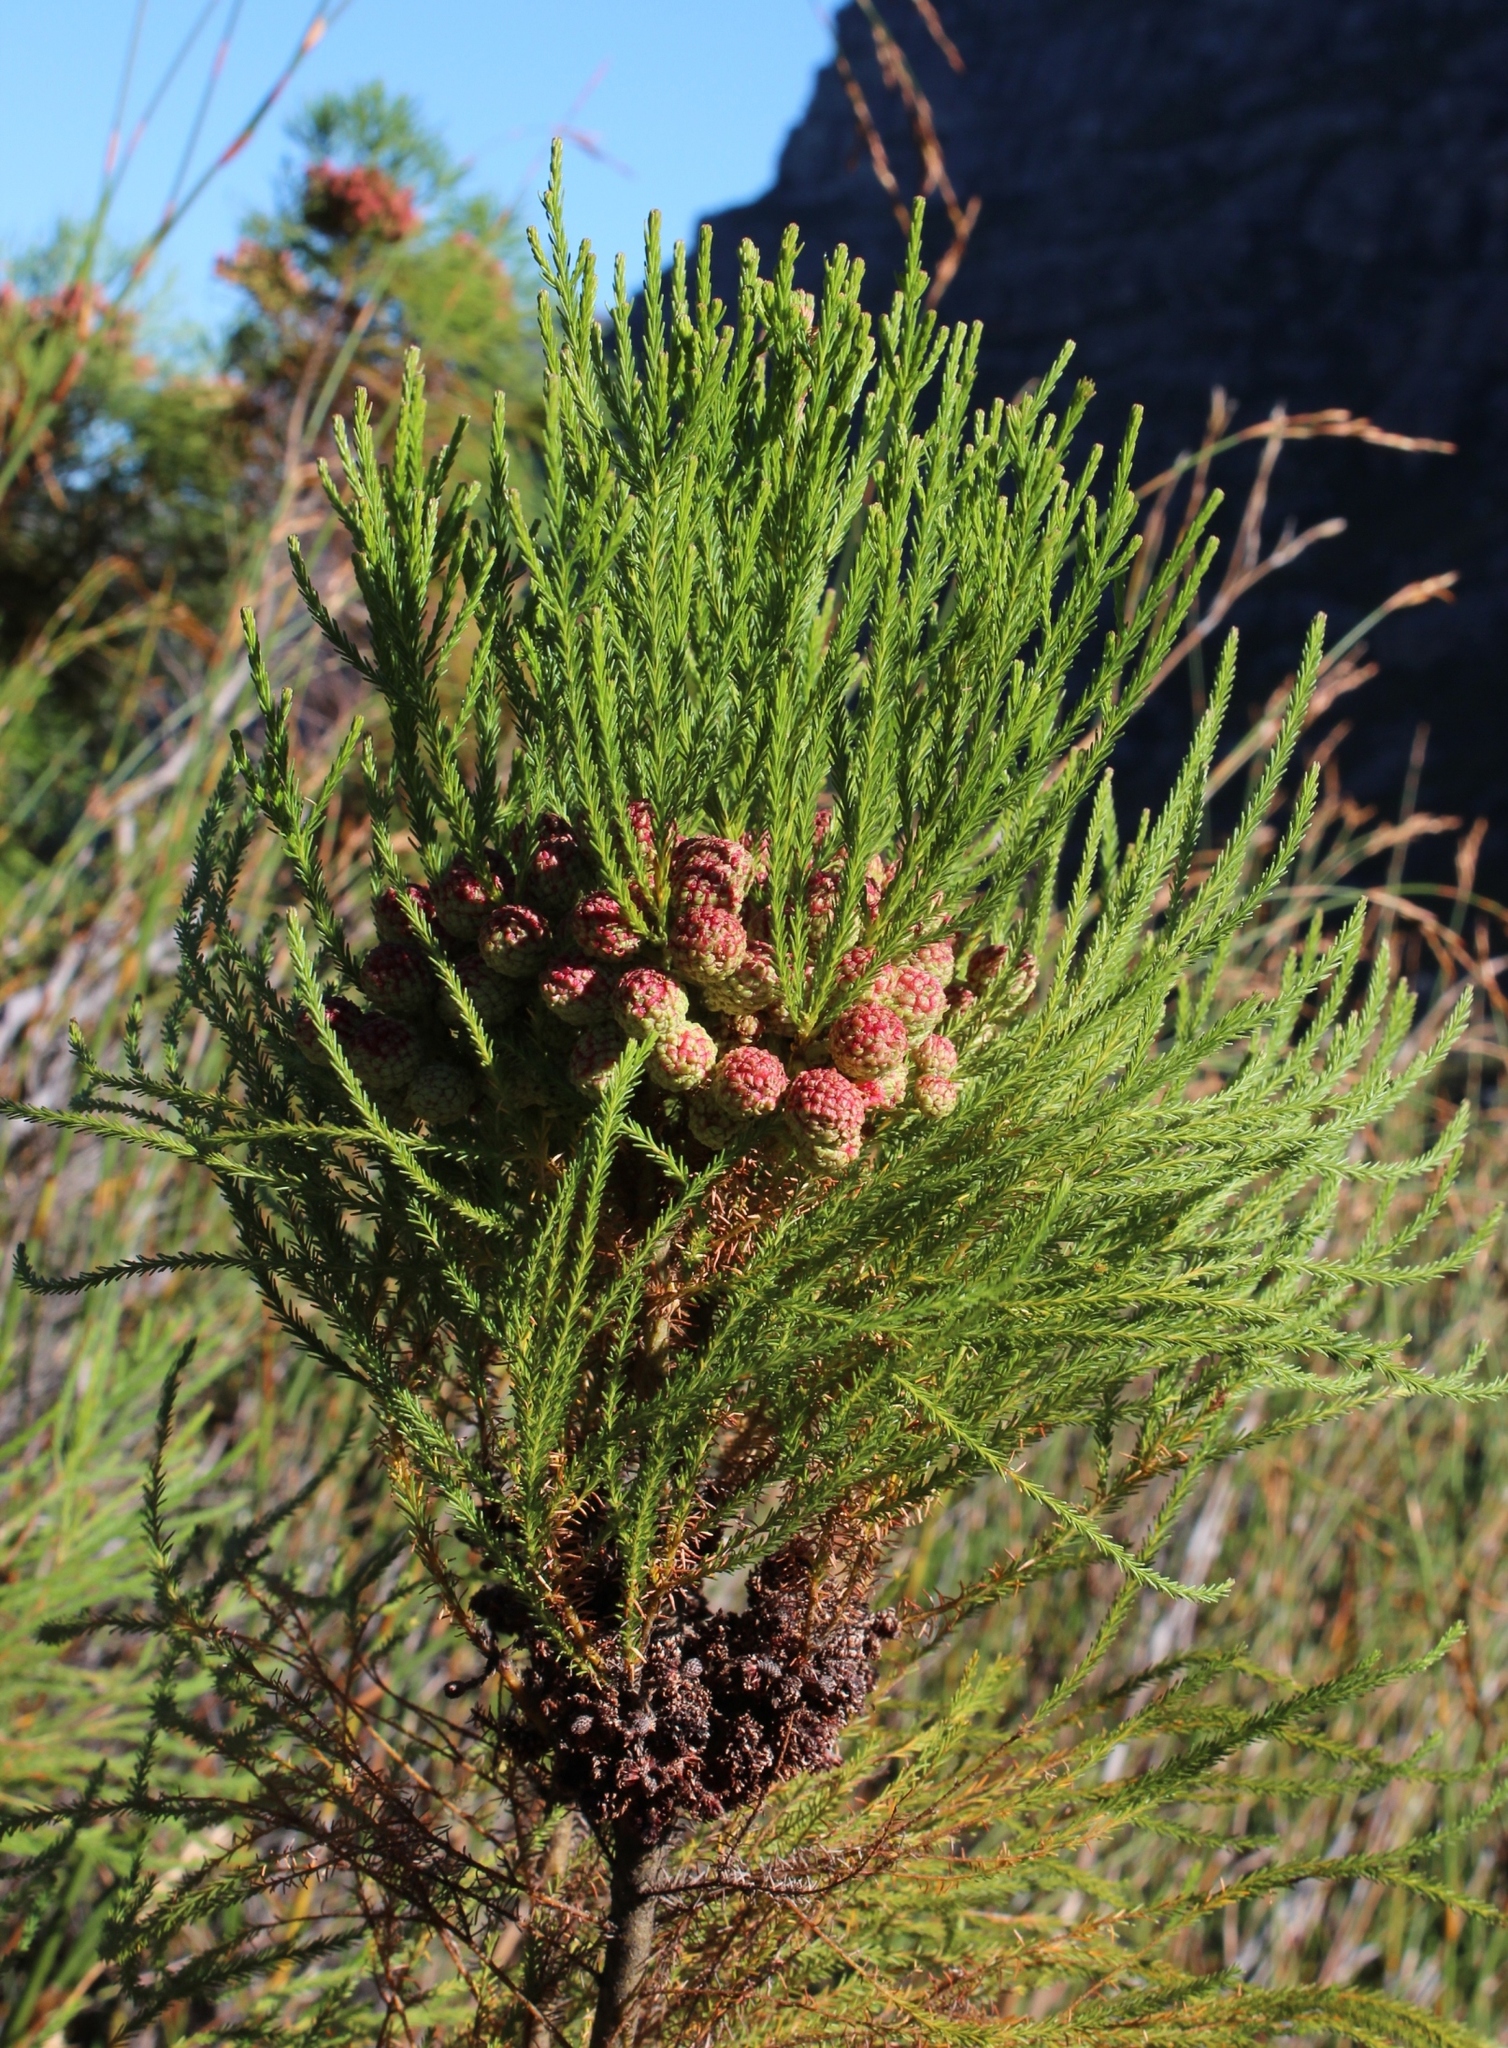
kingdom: Plantae
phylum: Tracheophyta
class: Magnoliopsida
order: Bruniales
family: Bruniaceae
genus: Berzelia
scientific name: Berzelia lanuginosa
